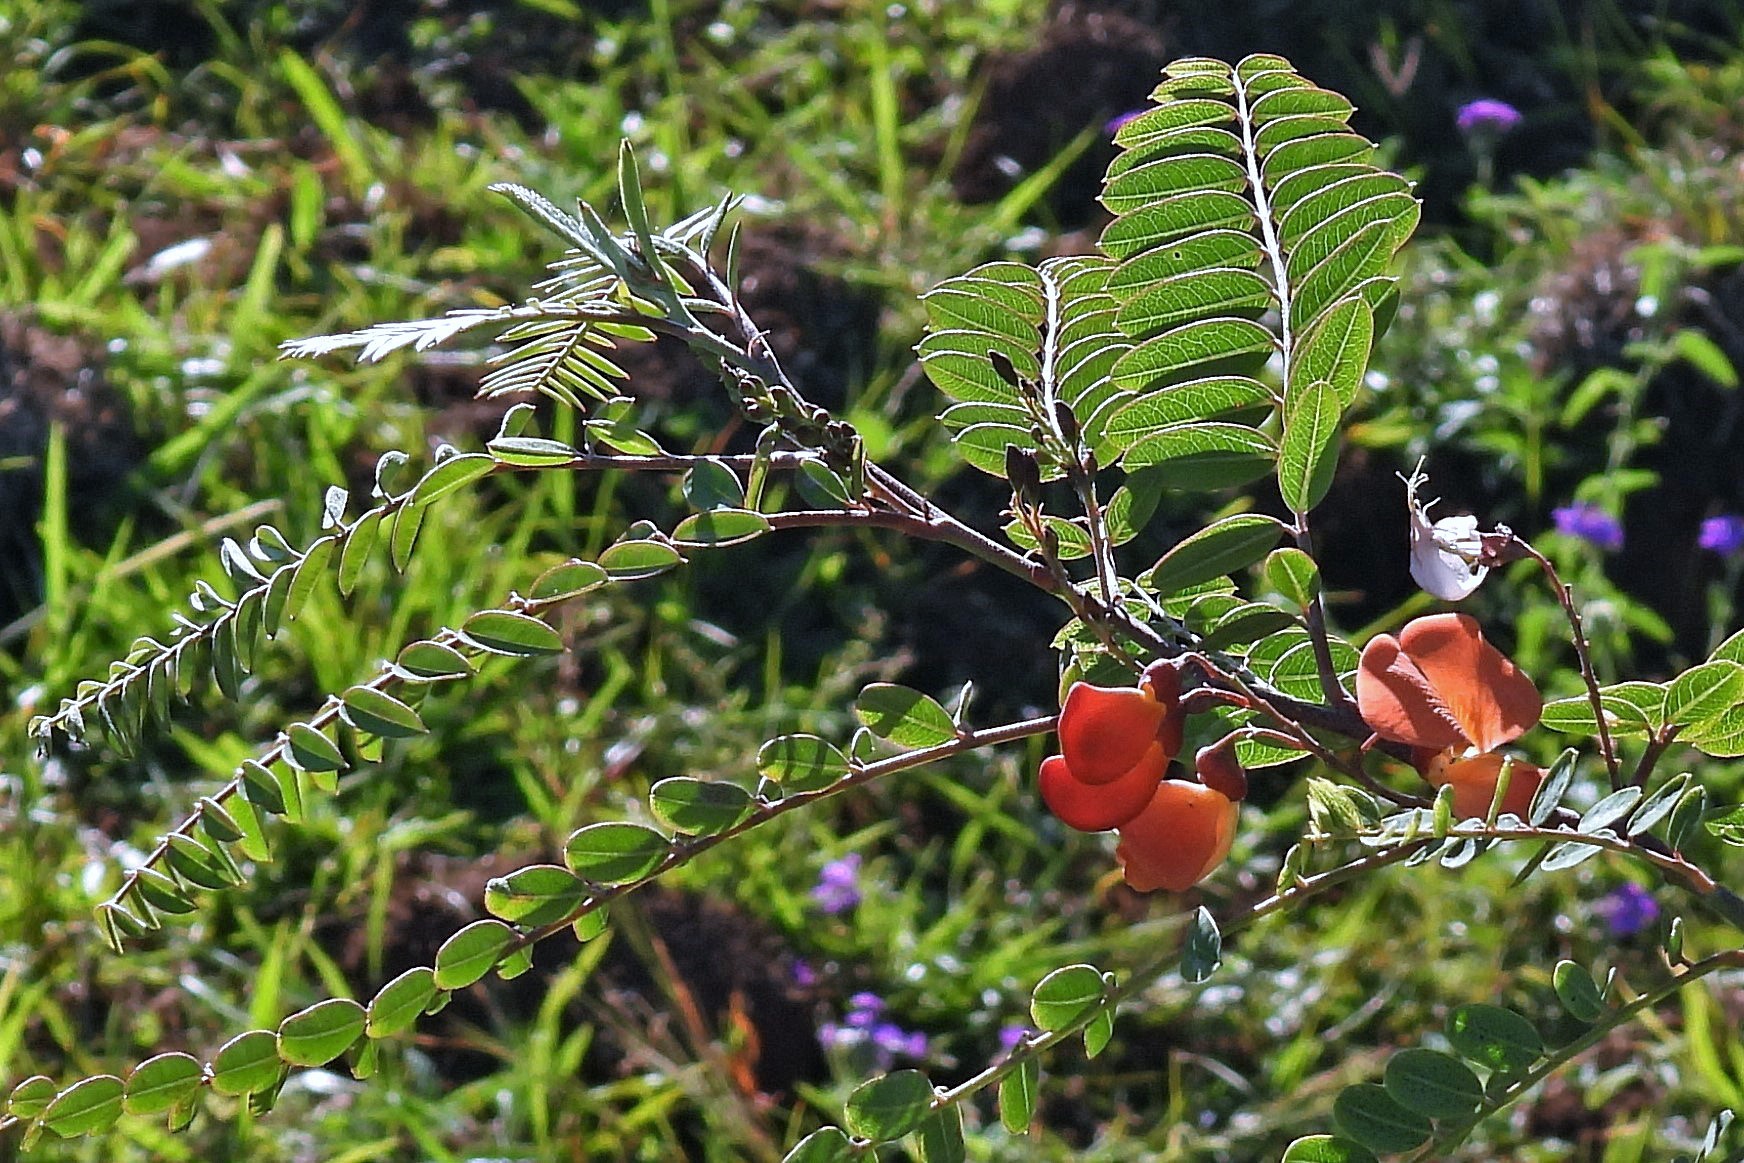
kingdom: Plantae
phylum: Tracheophyta
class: Magnoliopsida
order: Fabales
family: Fabaceae
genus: Sesbania
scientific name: Sesbania punicea
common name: Rattlebox
